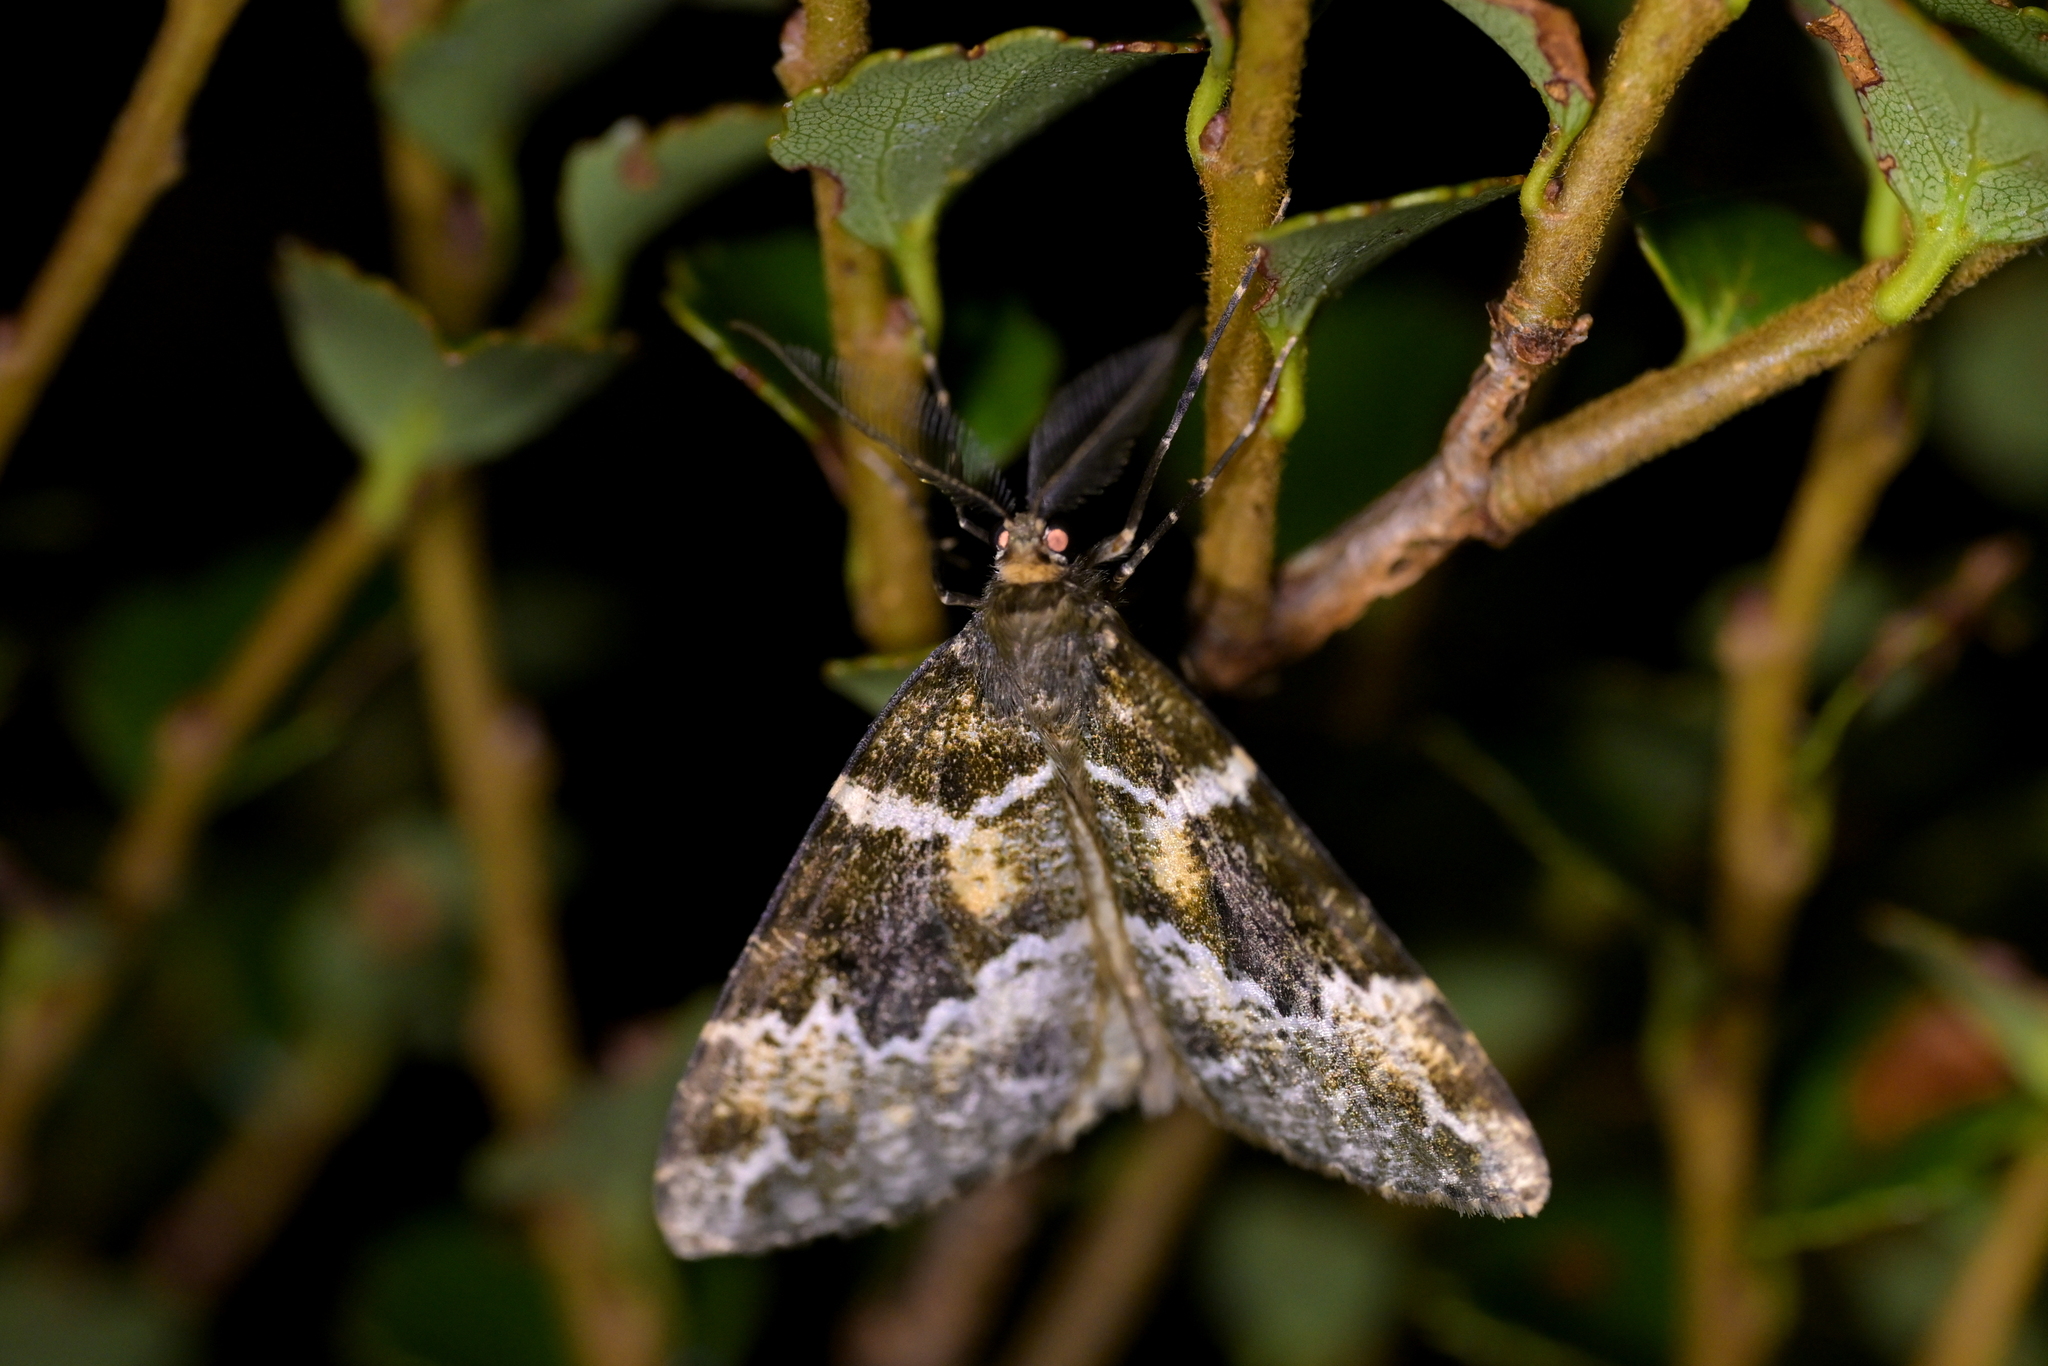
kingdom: Animalia
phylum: Arthropoda
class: Insecta
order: Lepidoptera
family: Geometridae
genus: Pseudocoremia
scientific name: Pseudocoremia productata
